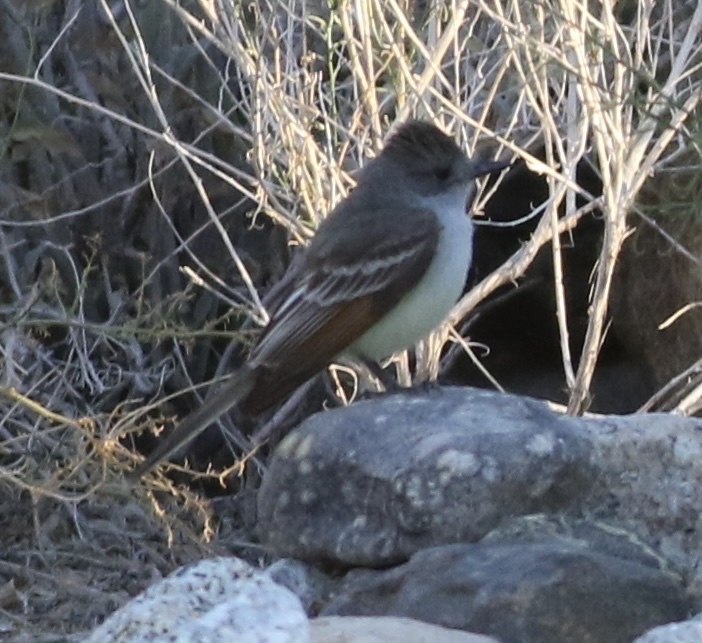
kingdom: Animalia
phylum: Chordata
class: Aves
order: Passeriformes
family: Tyrannidae
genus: Myiarchus
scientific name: Myiarchus cinerascens
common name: Ash-throated flycatcher
